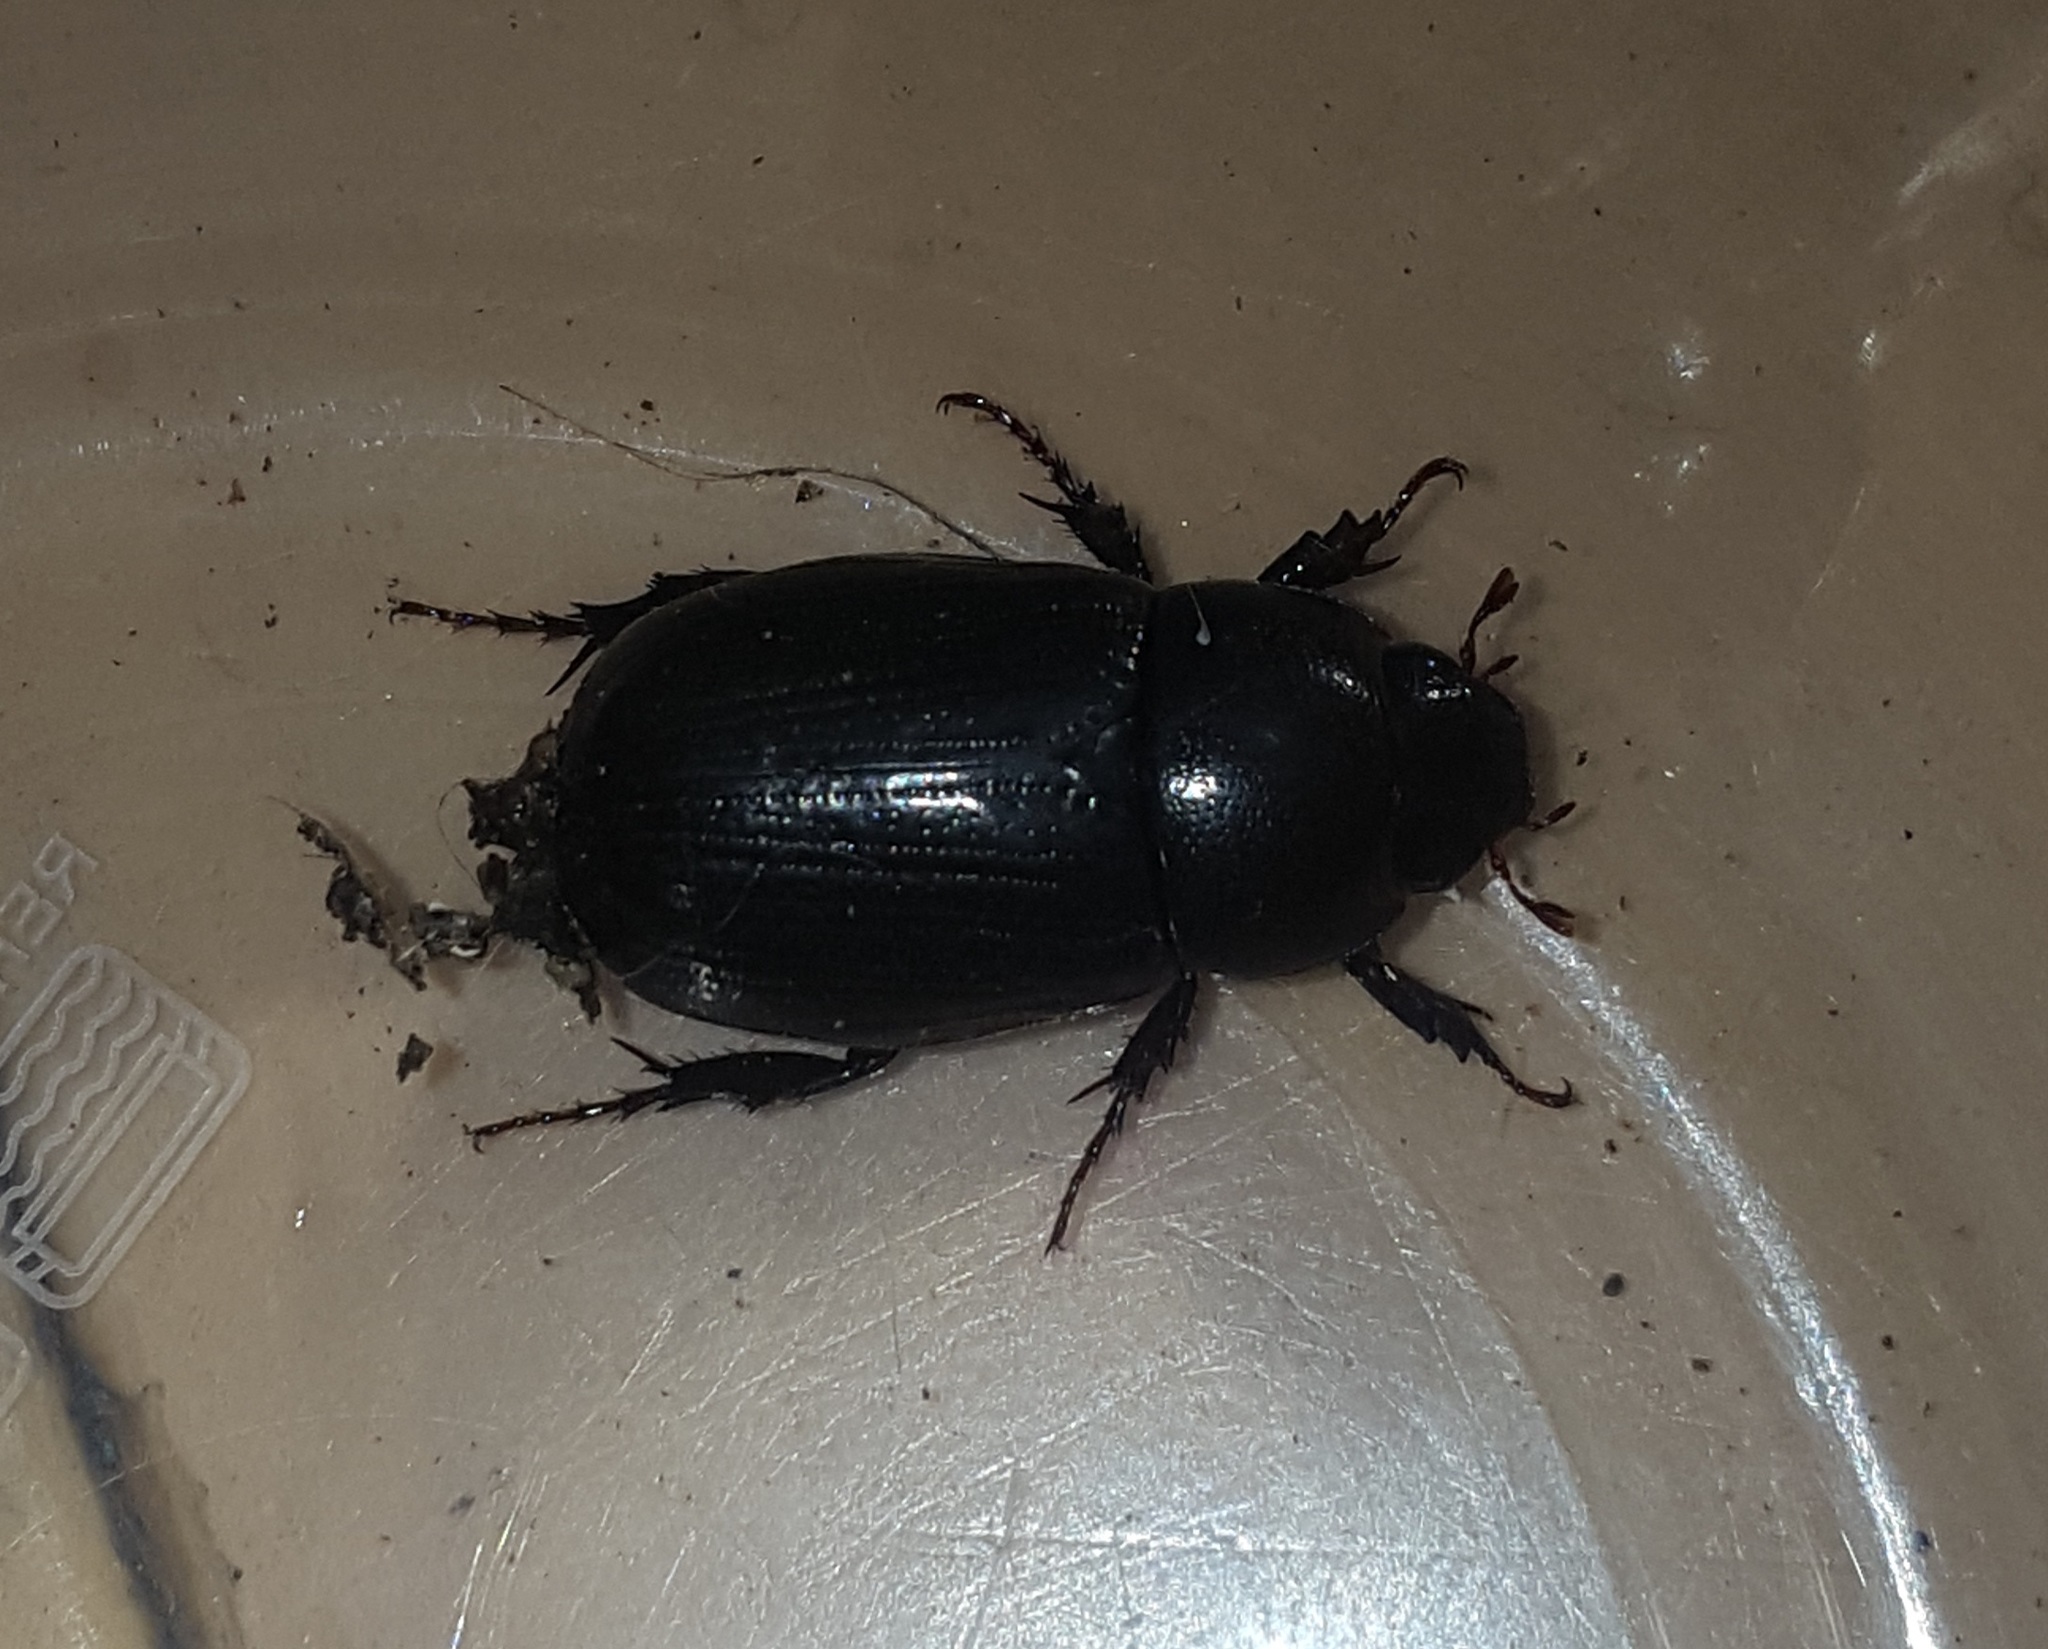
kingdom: Animalia
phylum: Arthropoda
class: Insecta
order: Coleoptera
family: Scarabaeidae
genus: Dyscinetus
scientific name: Dyscinetus morator
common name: Rice beetle
